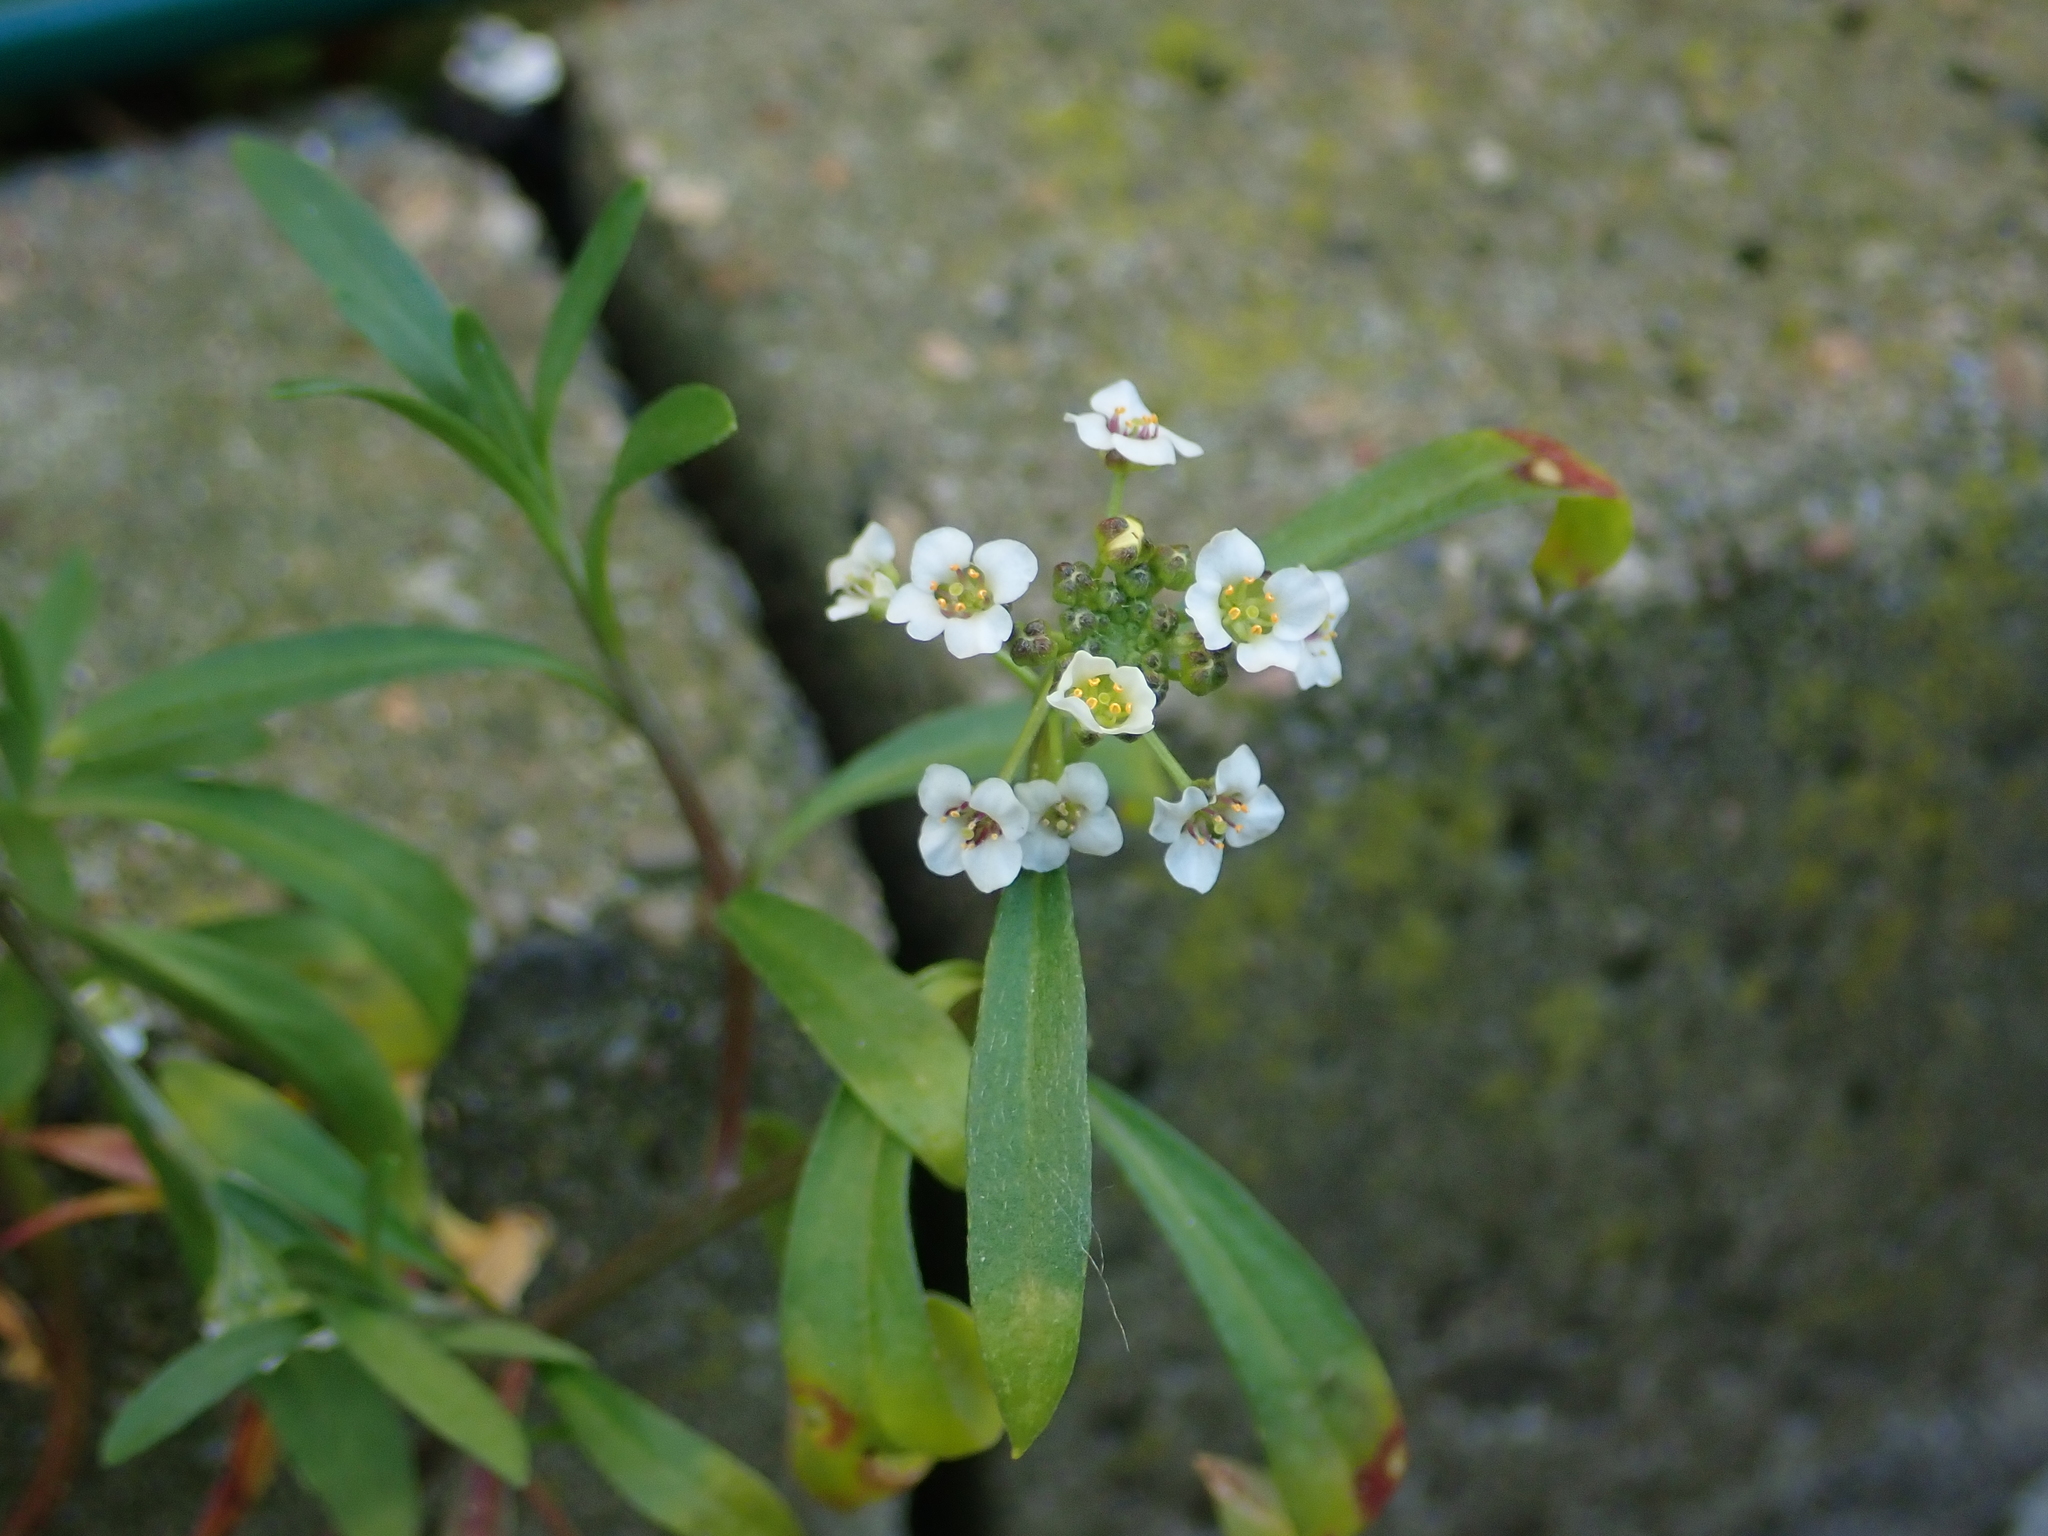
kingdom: Plantae
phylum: Tracheophyta
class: Magnoliopsida
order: Brassicales
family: Brassicaceae
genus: Lobularia
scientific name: Lobularia maritima
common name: Sweet alison
